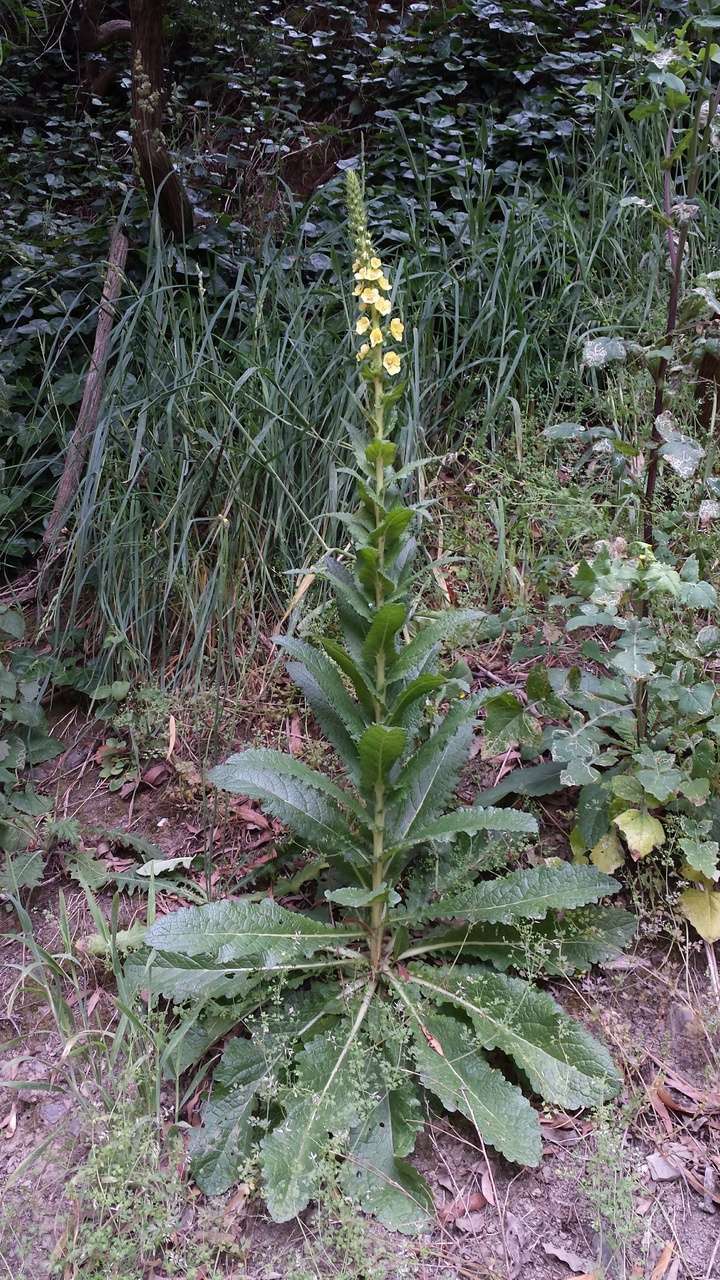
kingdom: Plantae
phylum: Tracheophyta
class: Magnoliopsida
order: Lamiales
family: Scrophulariaceae
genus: Verbascum
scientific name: Verbascum virgatum
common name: Twiggy mullein
